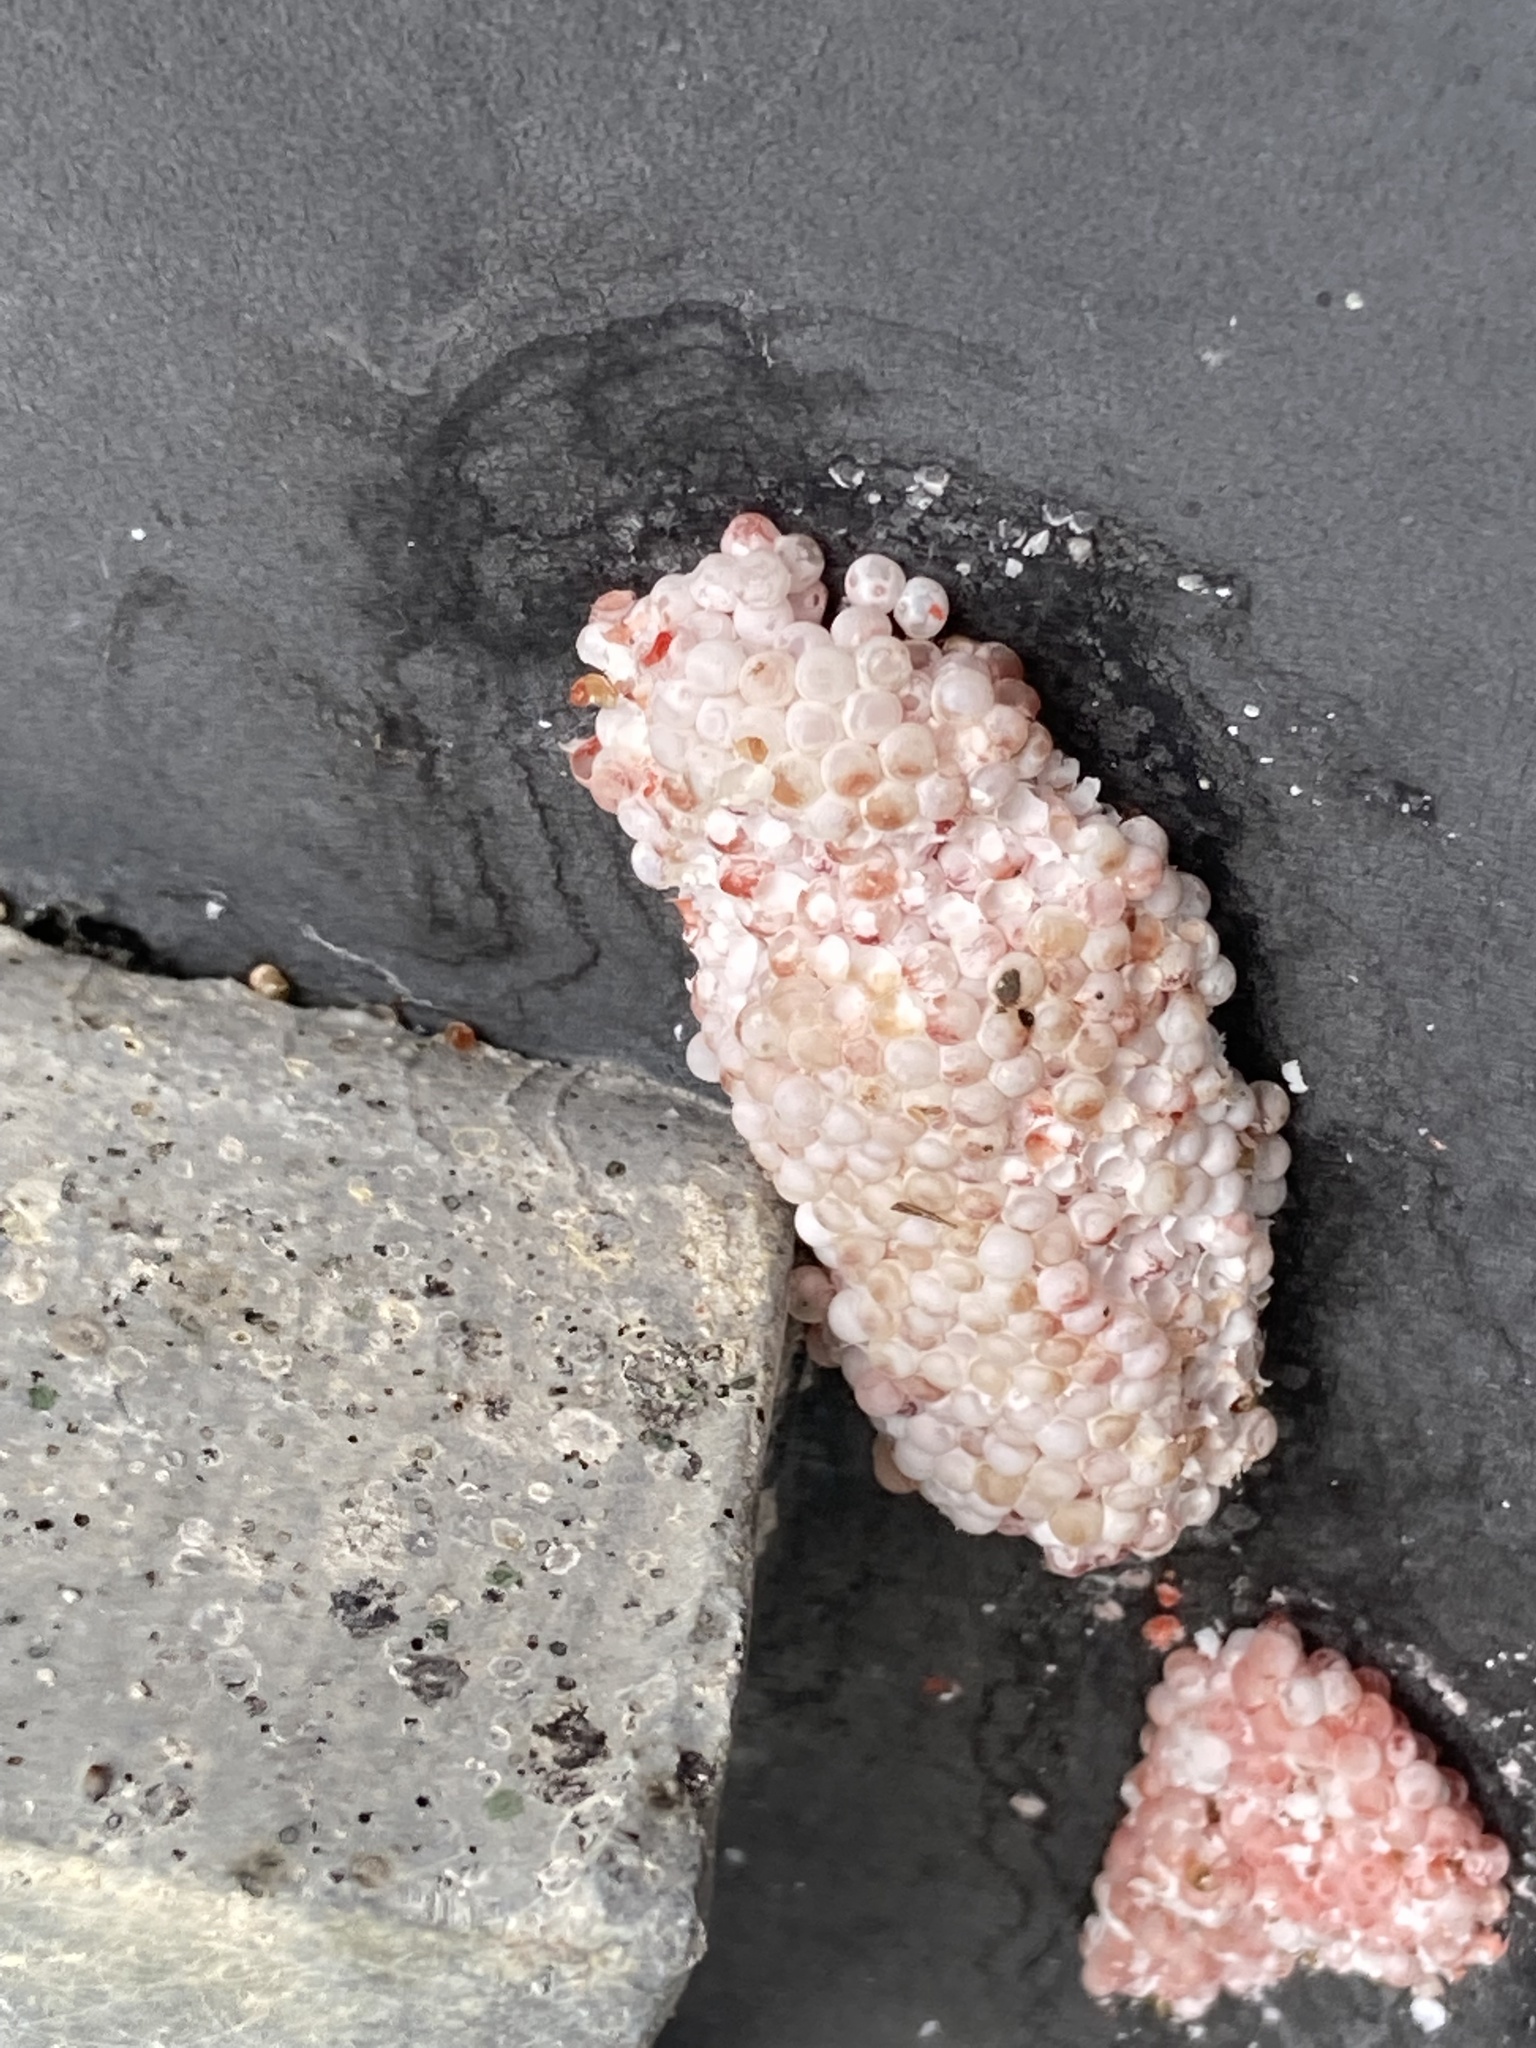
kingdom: Animalia
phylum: Mollusca
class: Gastropoda
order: Architaenioglossa
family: Ampullariidae
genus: Pomacea
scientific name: Pomacea maculata
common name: Giant applesnail
